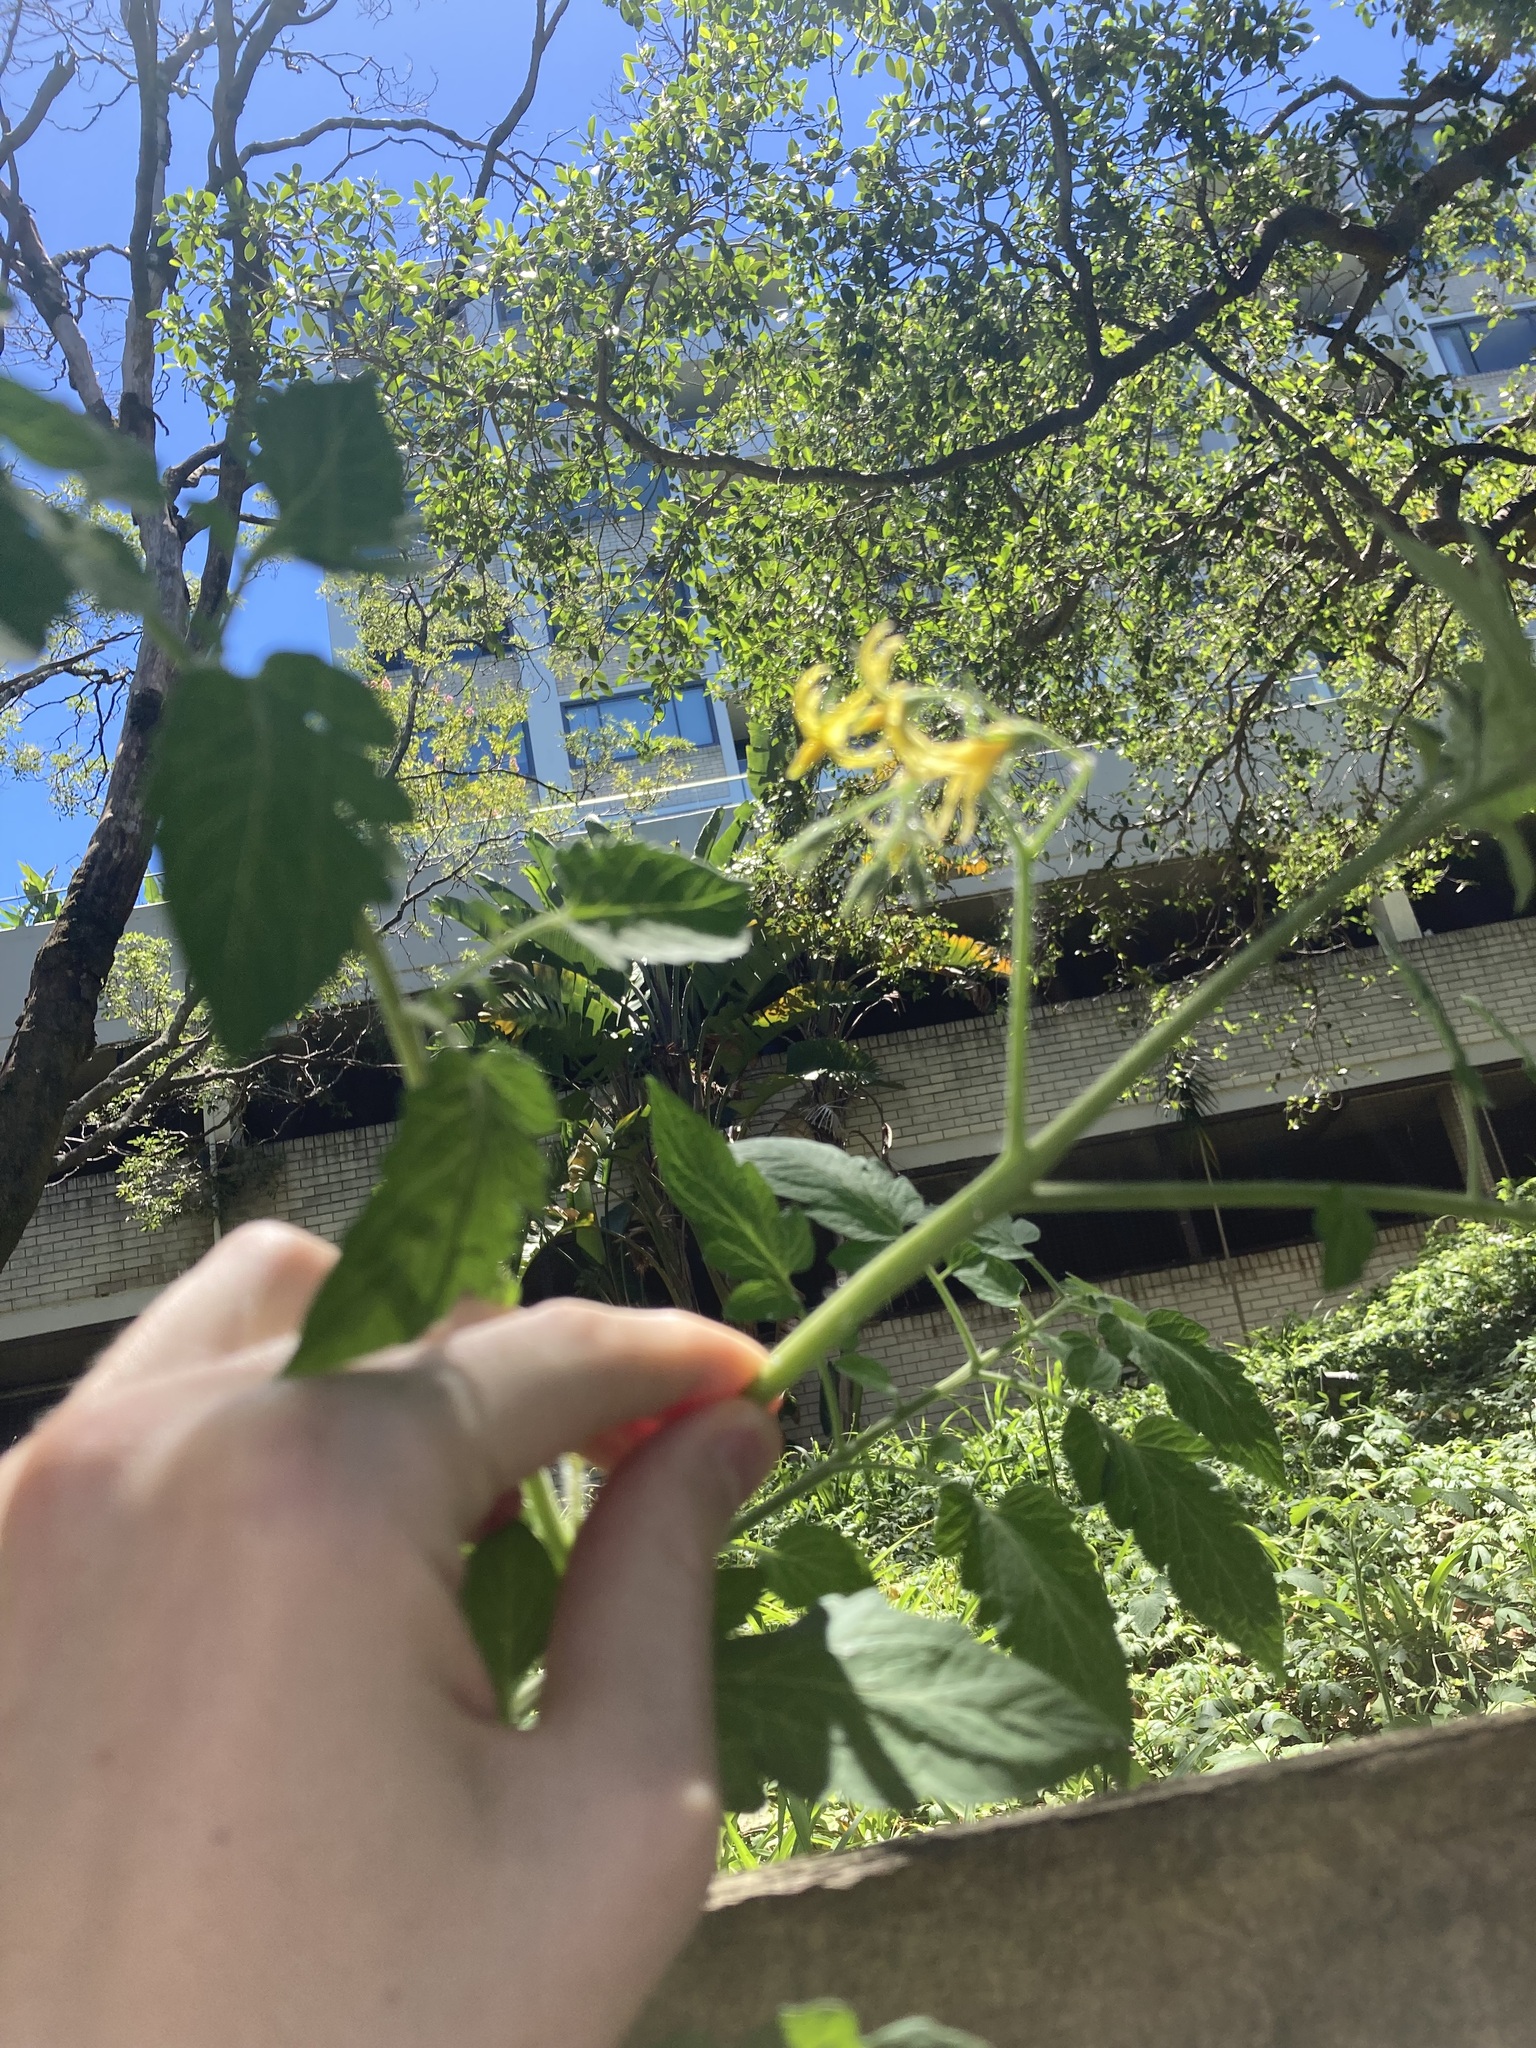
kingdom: Plantae
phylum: Tracheophyta
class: Magnoliopsida
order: Solanales
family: Solanaceae
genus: Solanum
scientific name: Solanum lycopersicum
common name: Garden tomato
